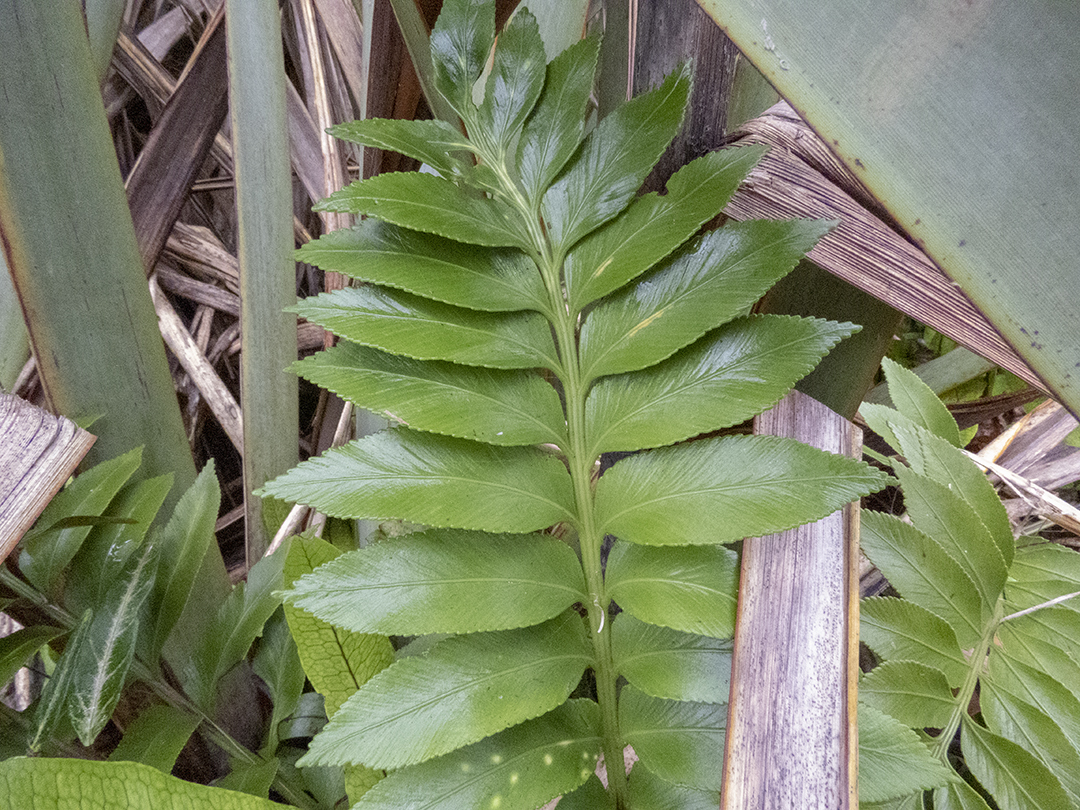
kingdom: Plantae
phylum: Tracheophyta
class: Polypodiopsida
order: Polypodiales
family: Aspleniaceae
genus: Asplenium
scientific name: Asplenium obtusatum
